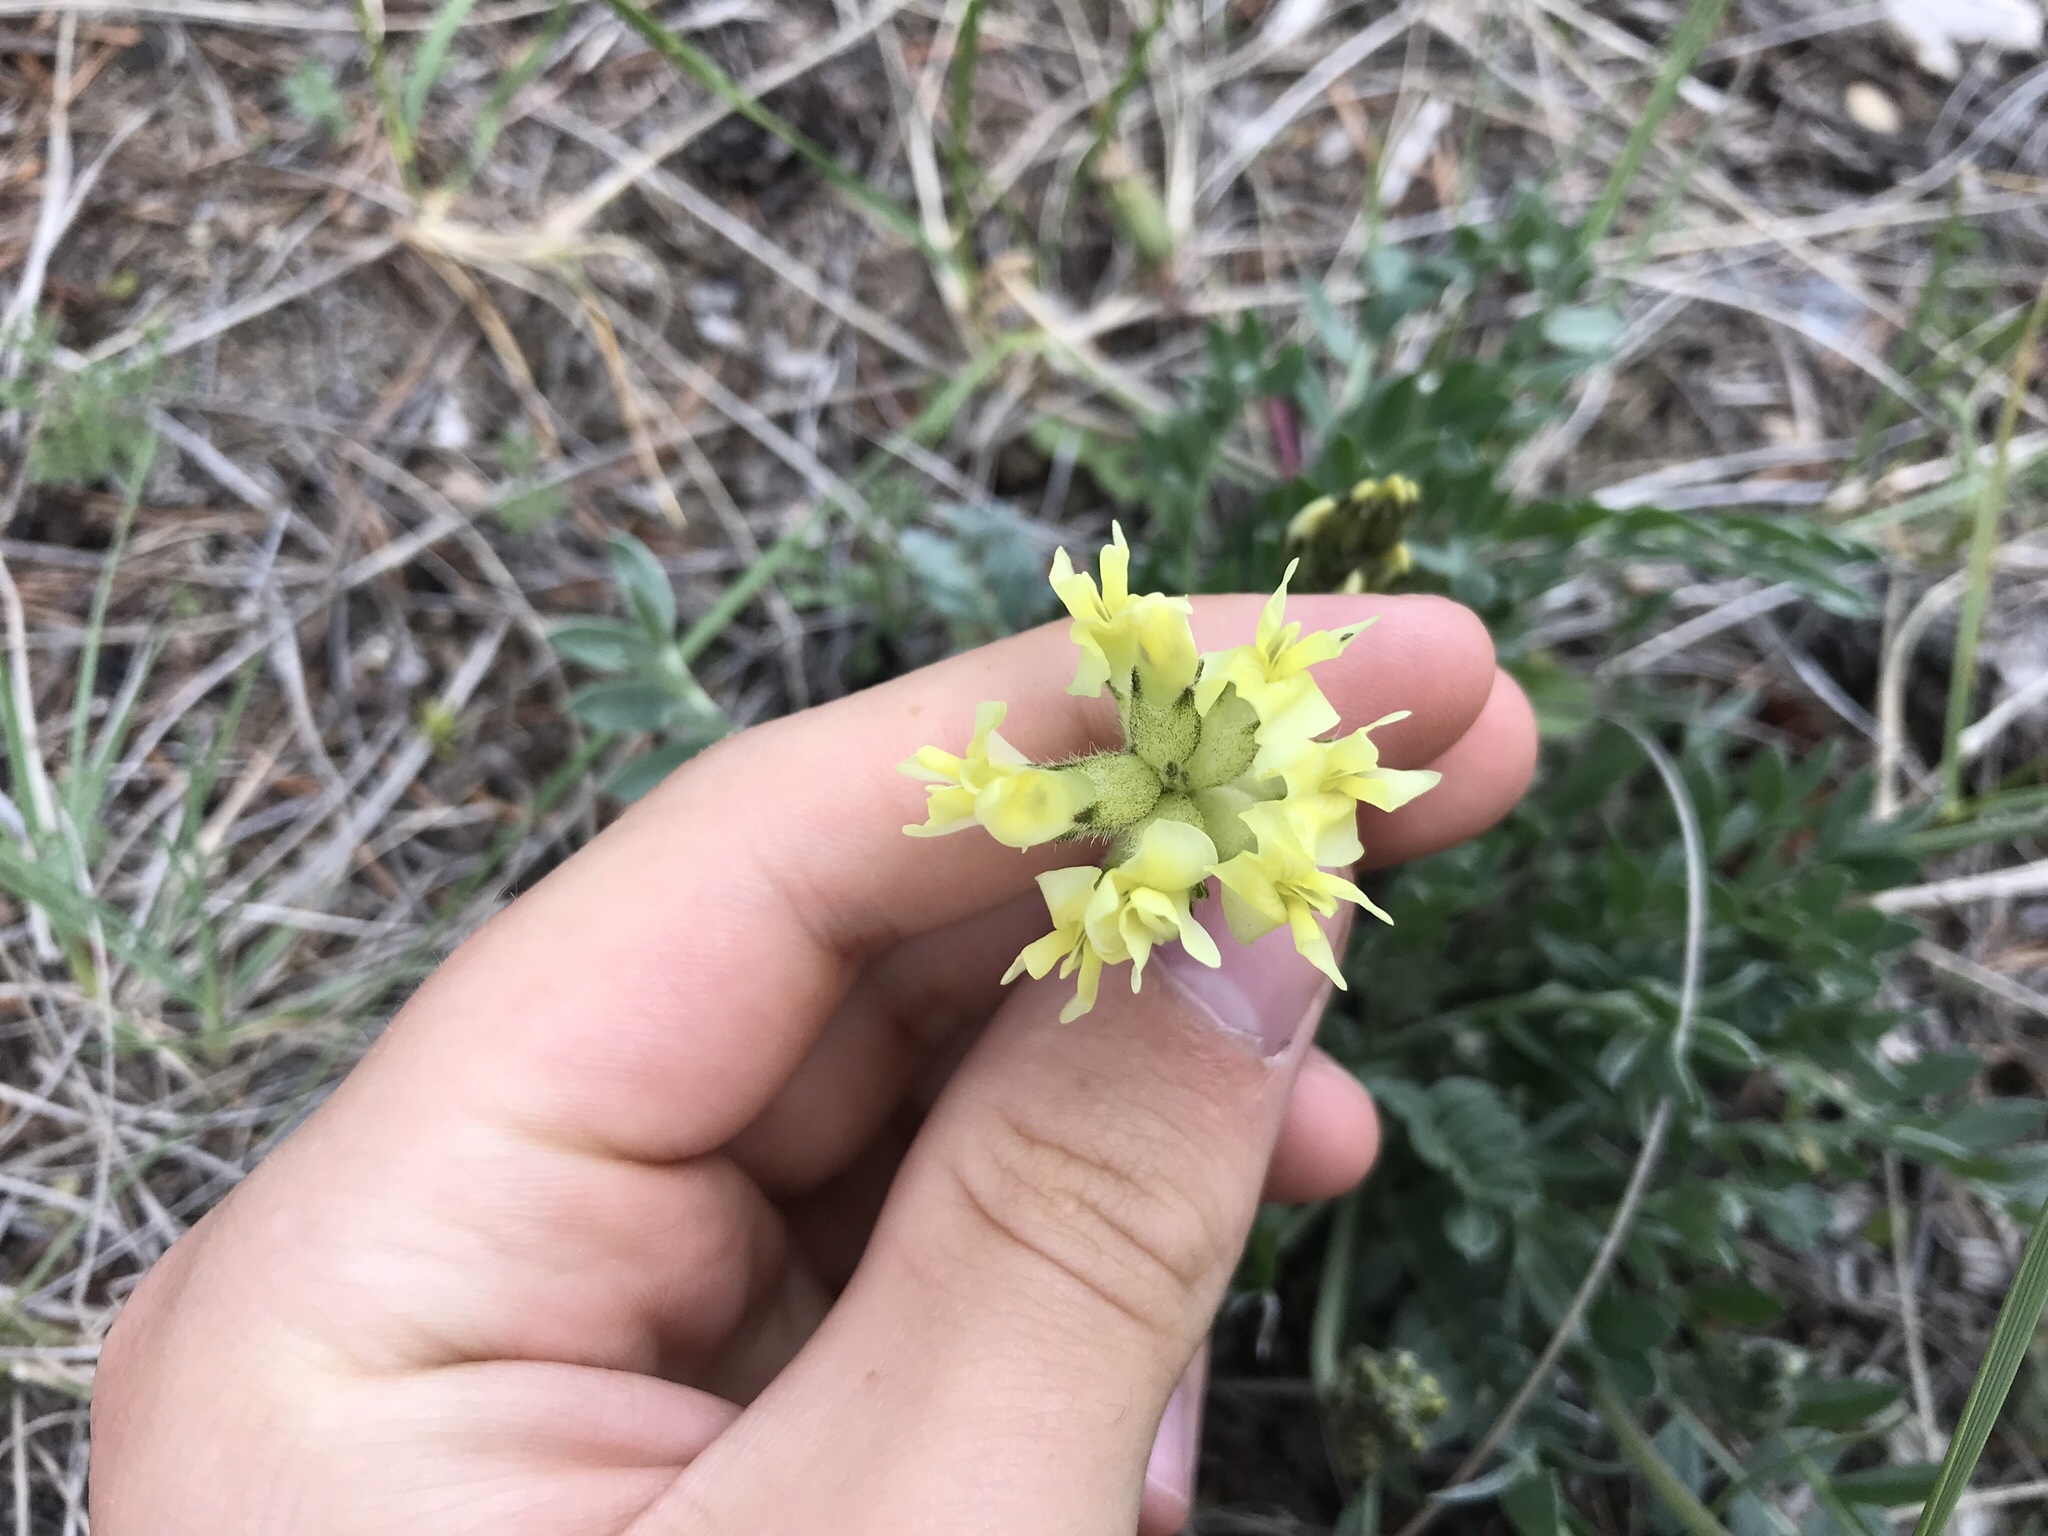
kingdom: Plantae
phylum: Tracheophyta
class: Magnoliopsida
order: Fabales
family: Fabaceae
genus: Oxytropis
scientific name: Oxytropis sericea
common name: Silky locoweed
